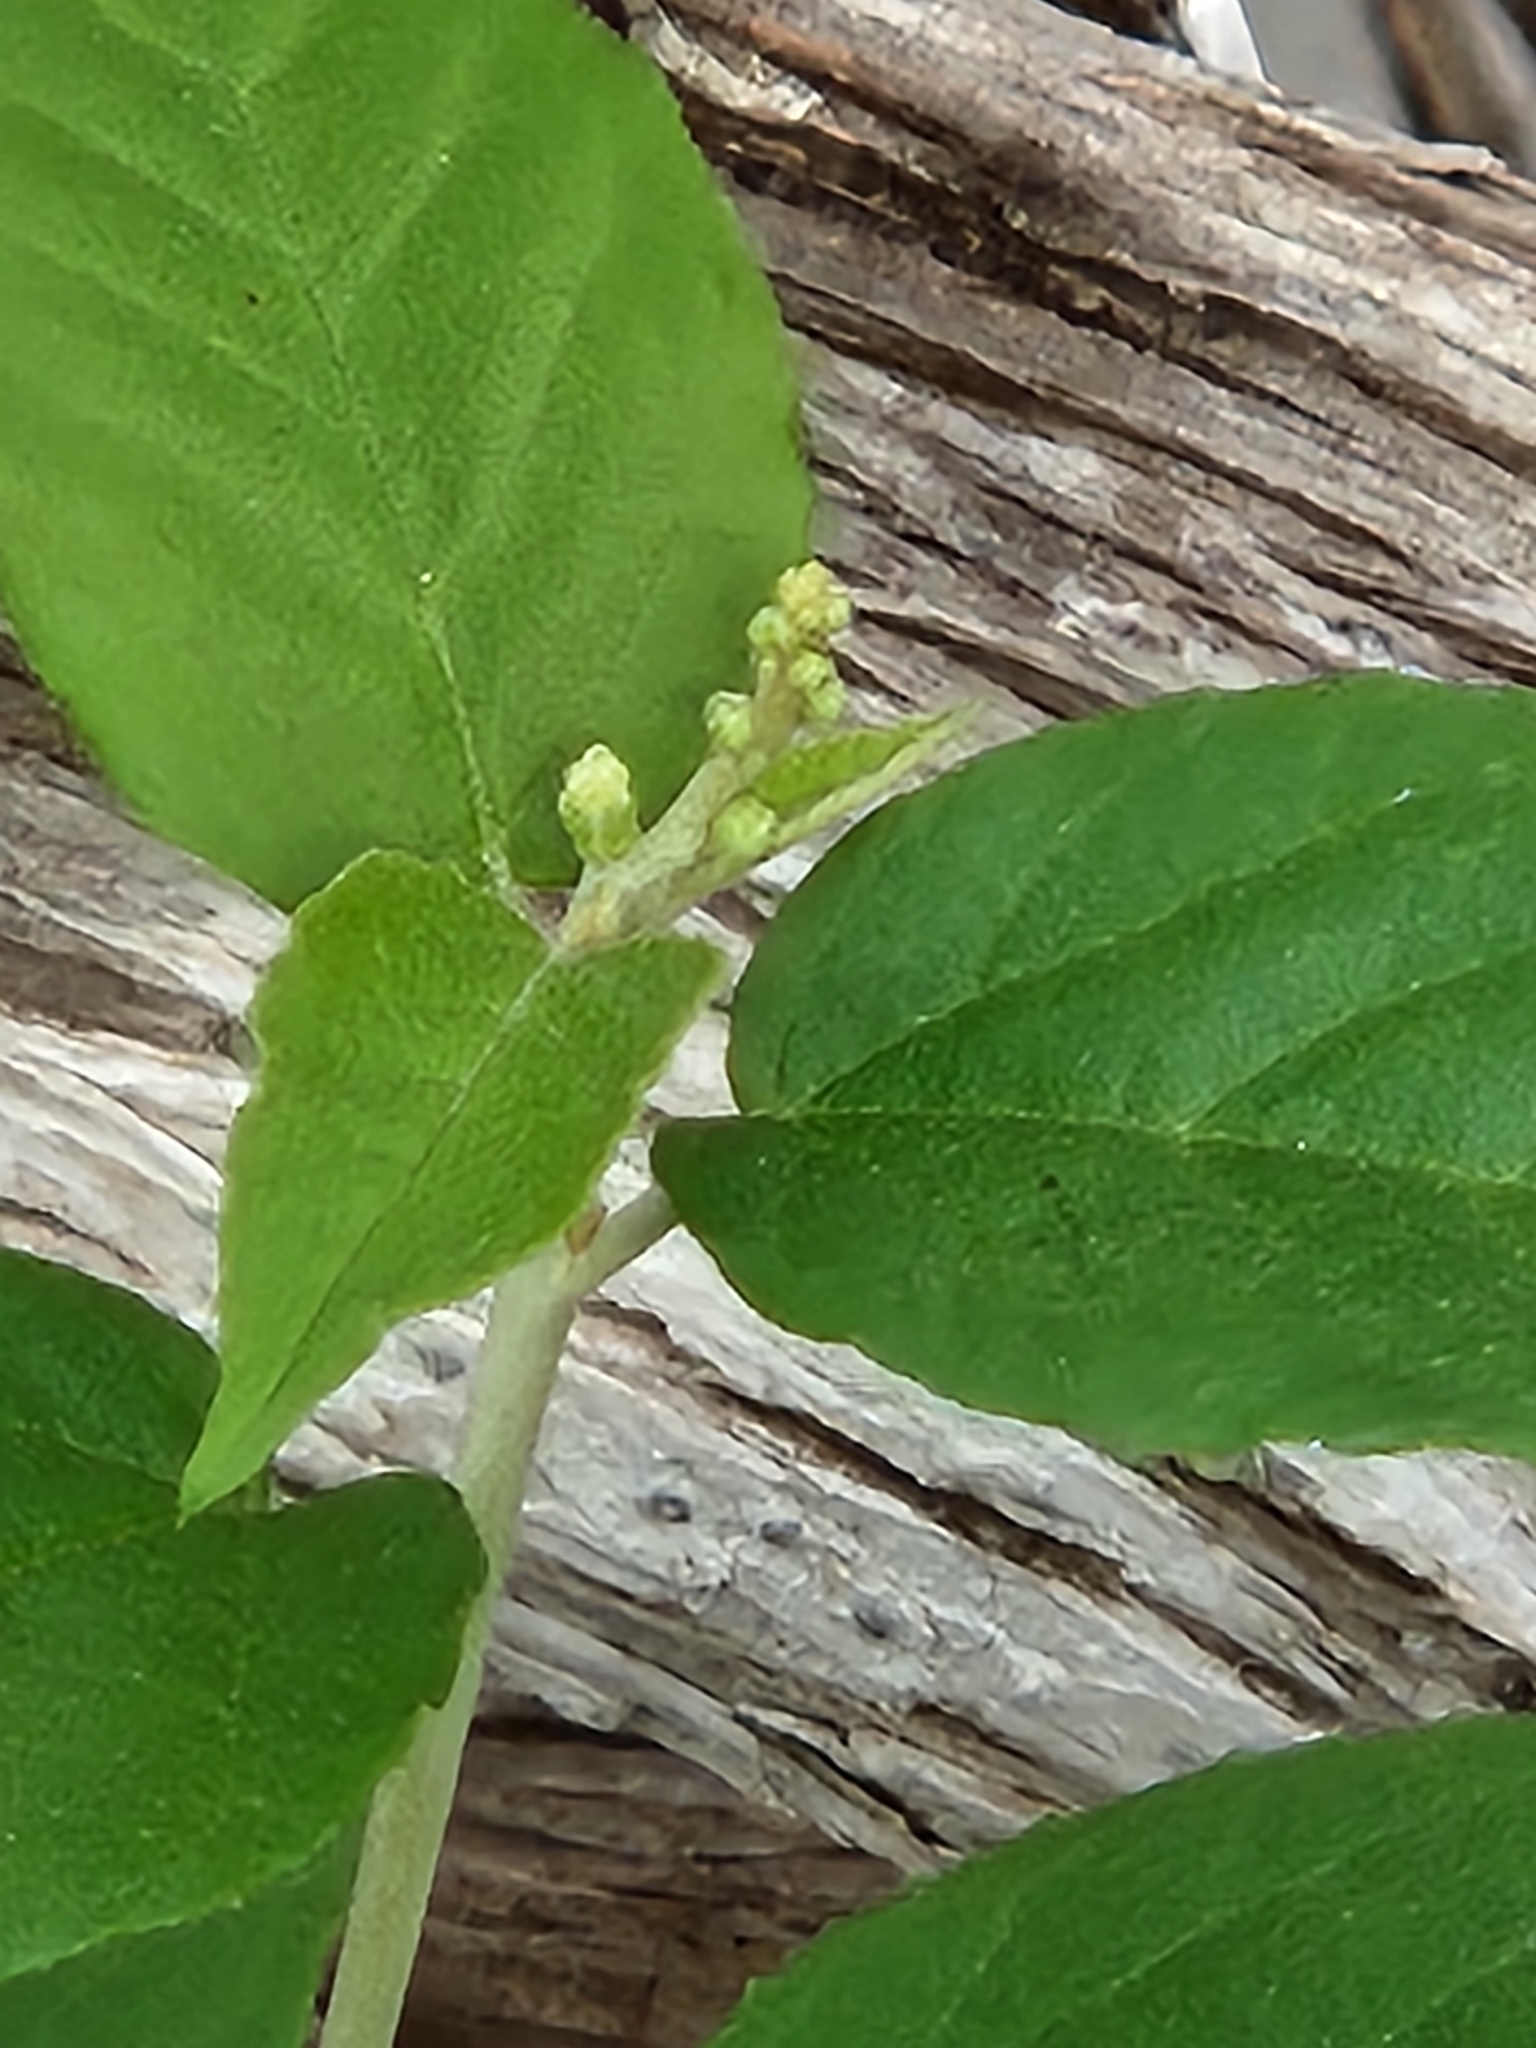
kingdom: Plantae
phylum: Tracheophyta
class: Magnoliopsida
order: Malpighiales
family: Euphorbiaceae
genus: Croton
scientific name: Croton fruticulosus
